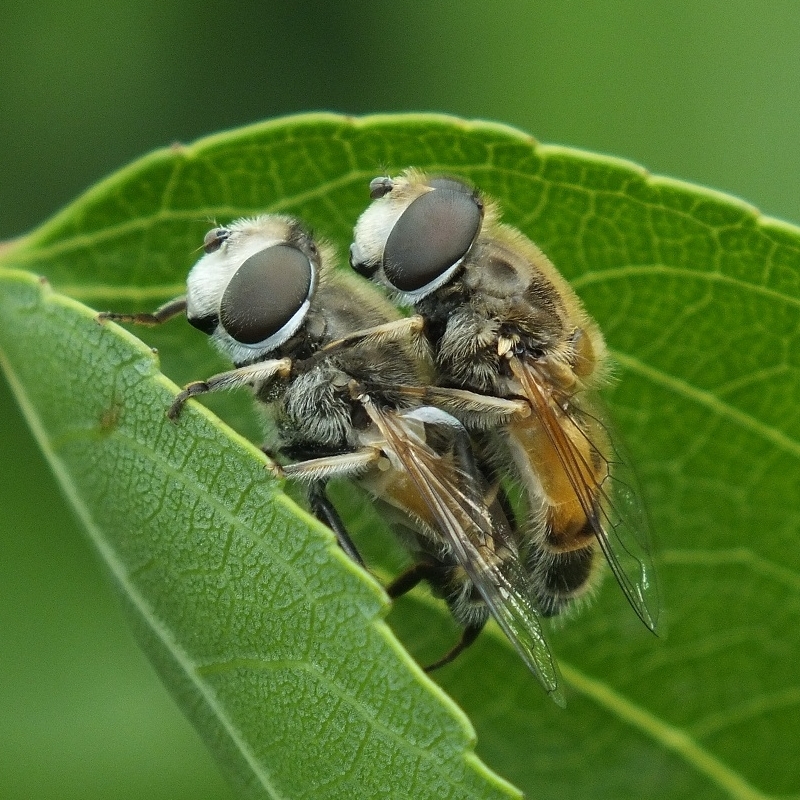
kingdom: Animalia
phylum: Arthropoda
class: Insecta
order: Diptera
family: Syrphidae
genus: Eristalis
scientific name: Eristalis arbustorum
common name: Hover fly
